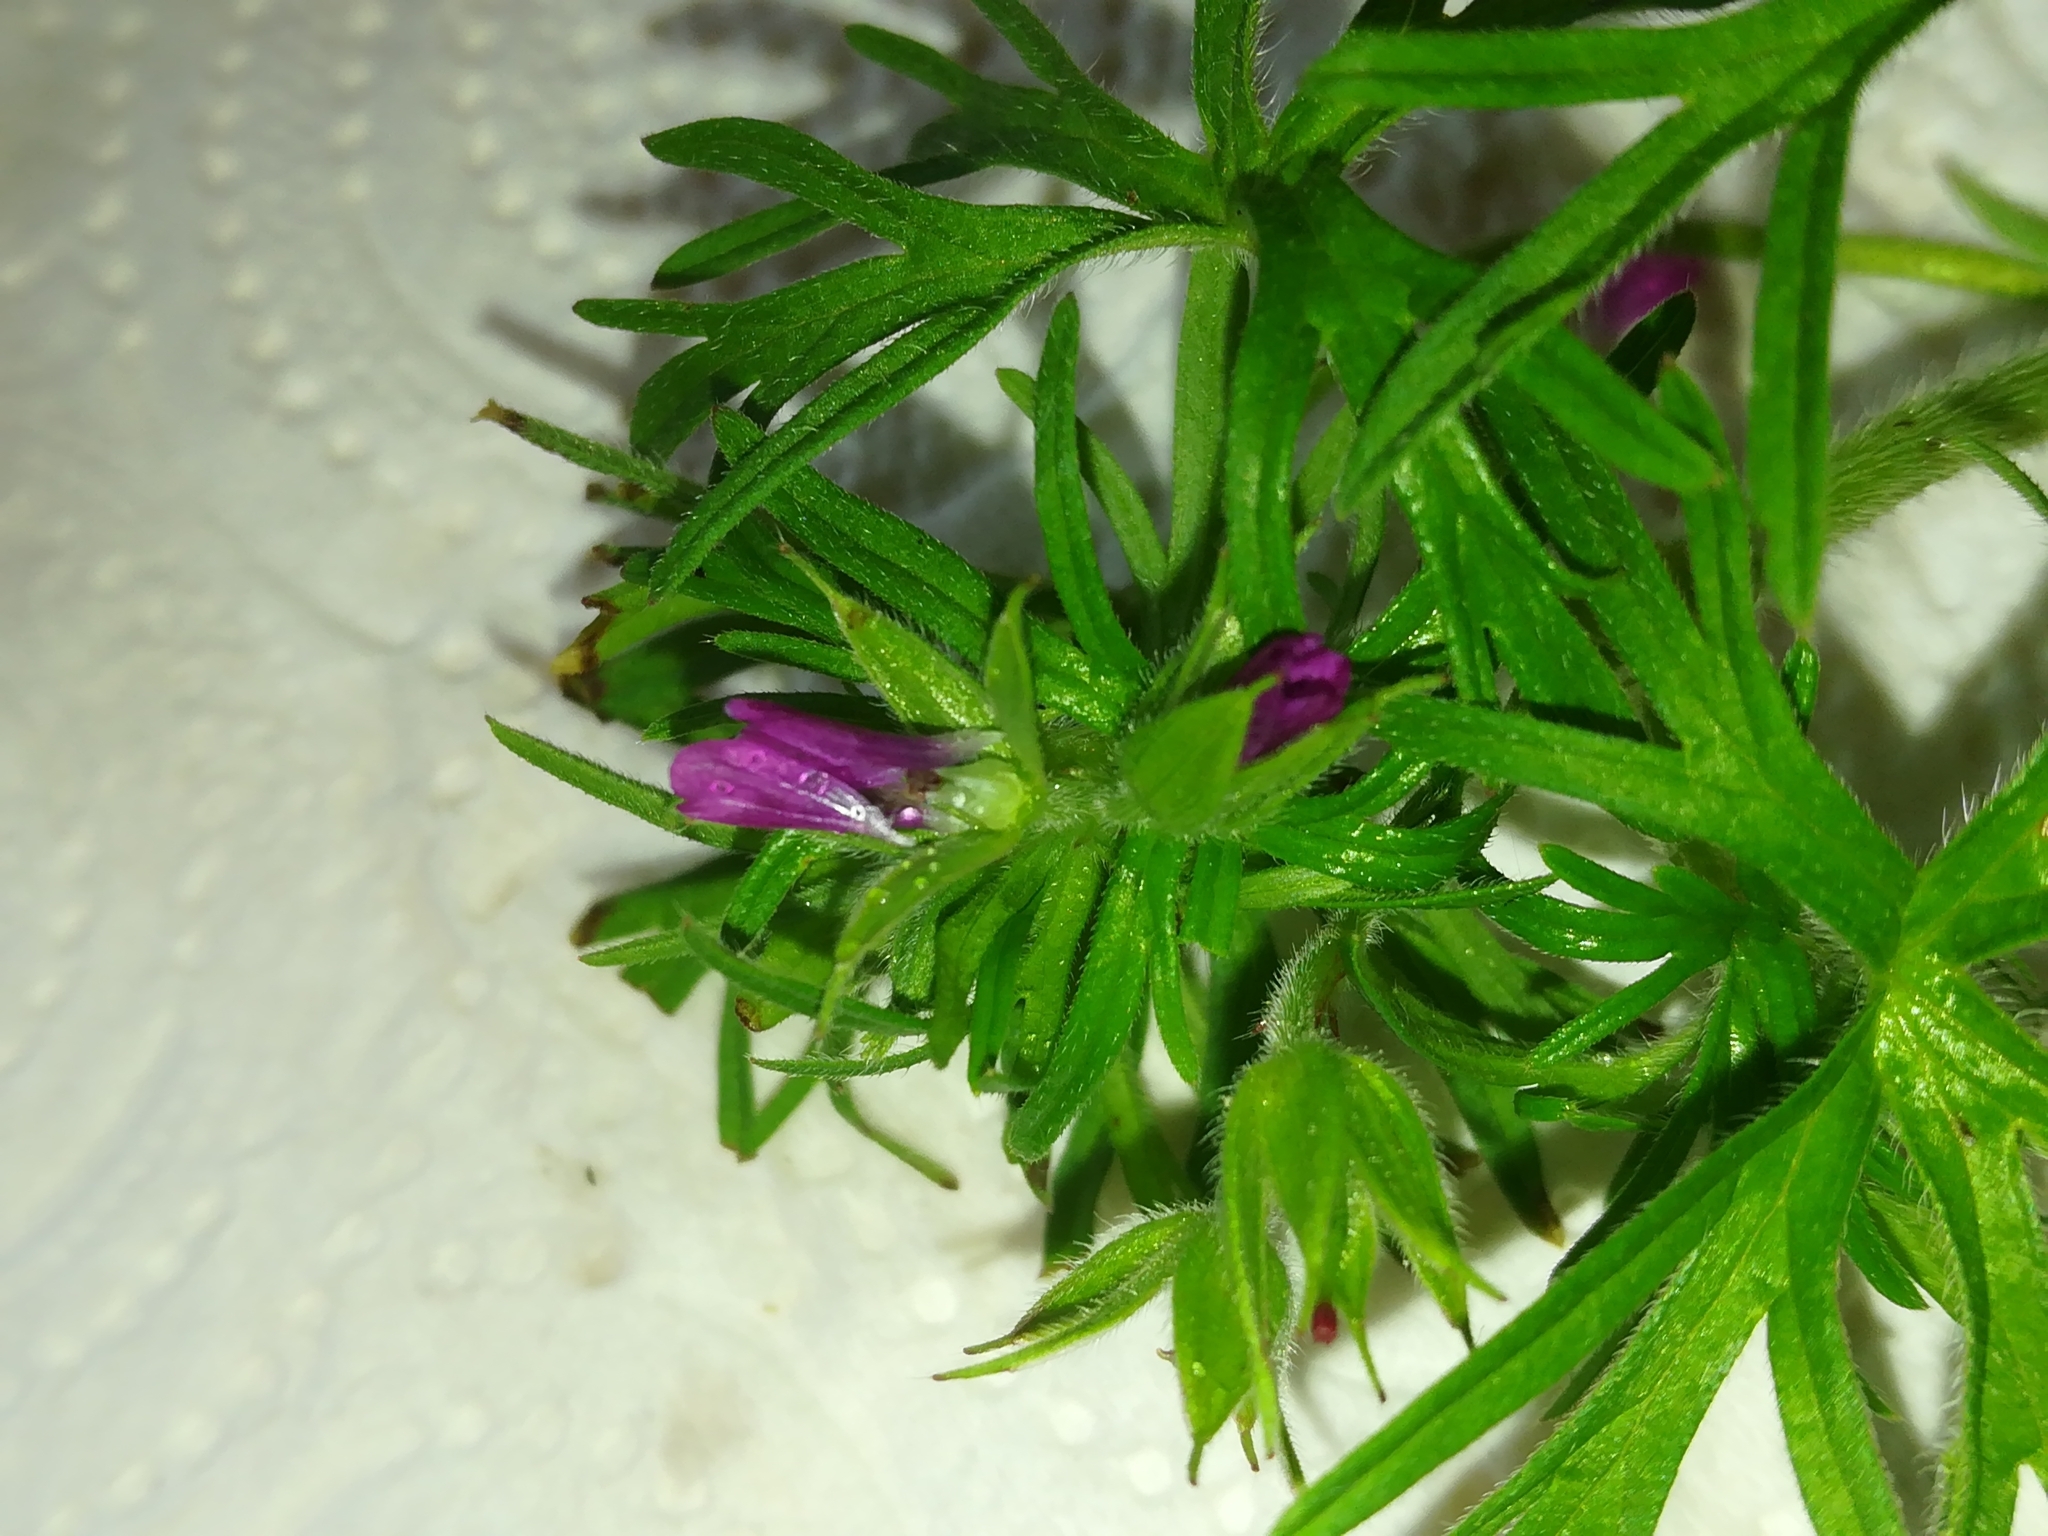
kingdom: Plantae
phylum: Tracheophyta
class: Magnoliopsida
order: Geraniales
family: Geraniaceae
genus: Geranium
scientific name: Geranium dissectum
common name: Cut-leaved crane's-bill
